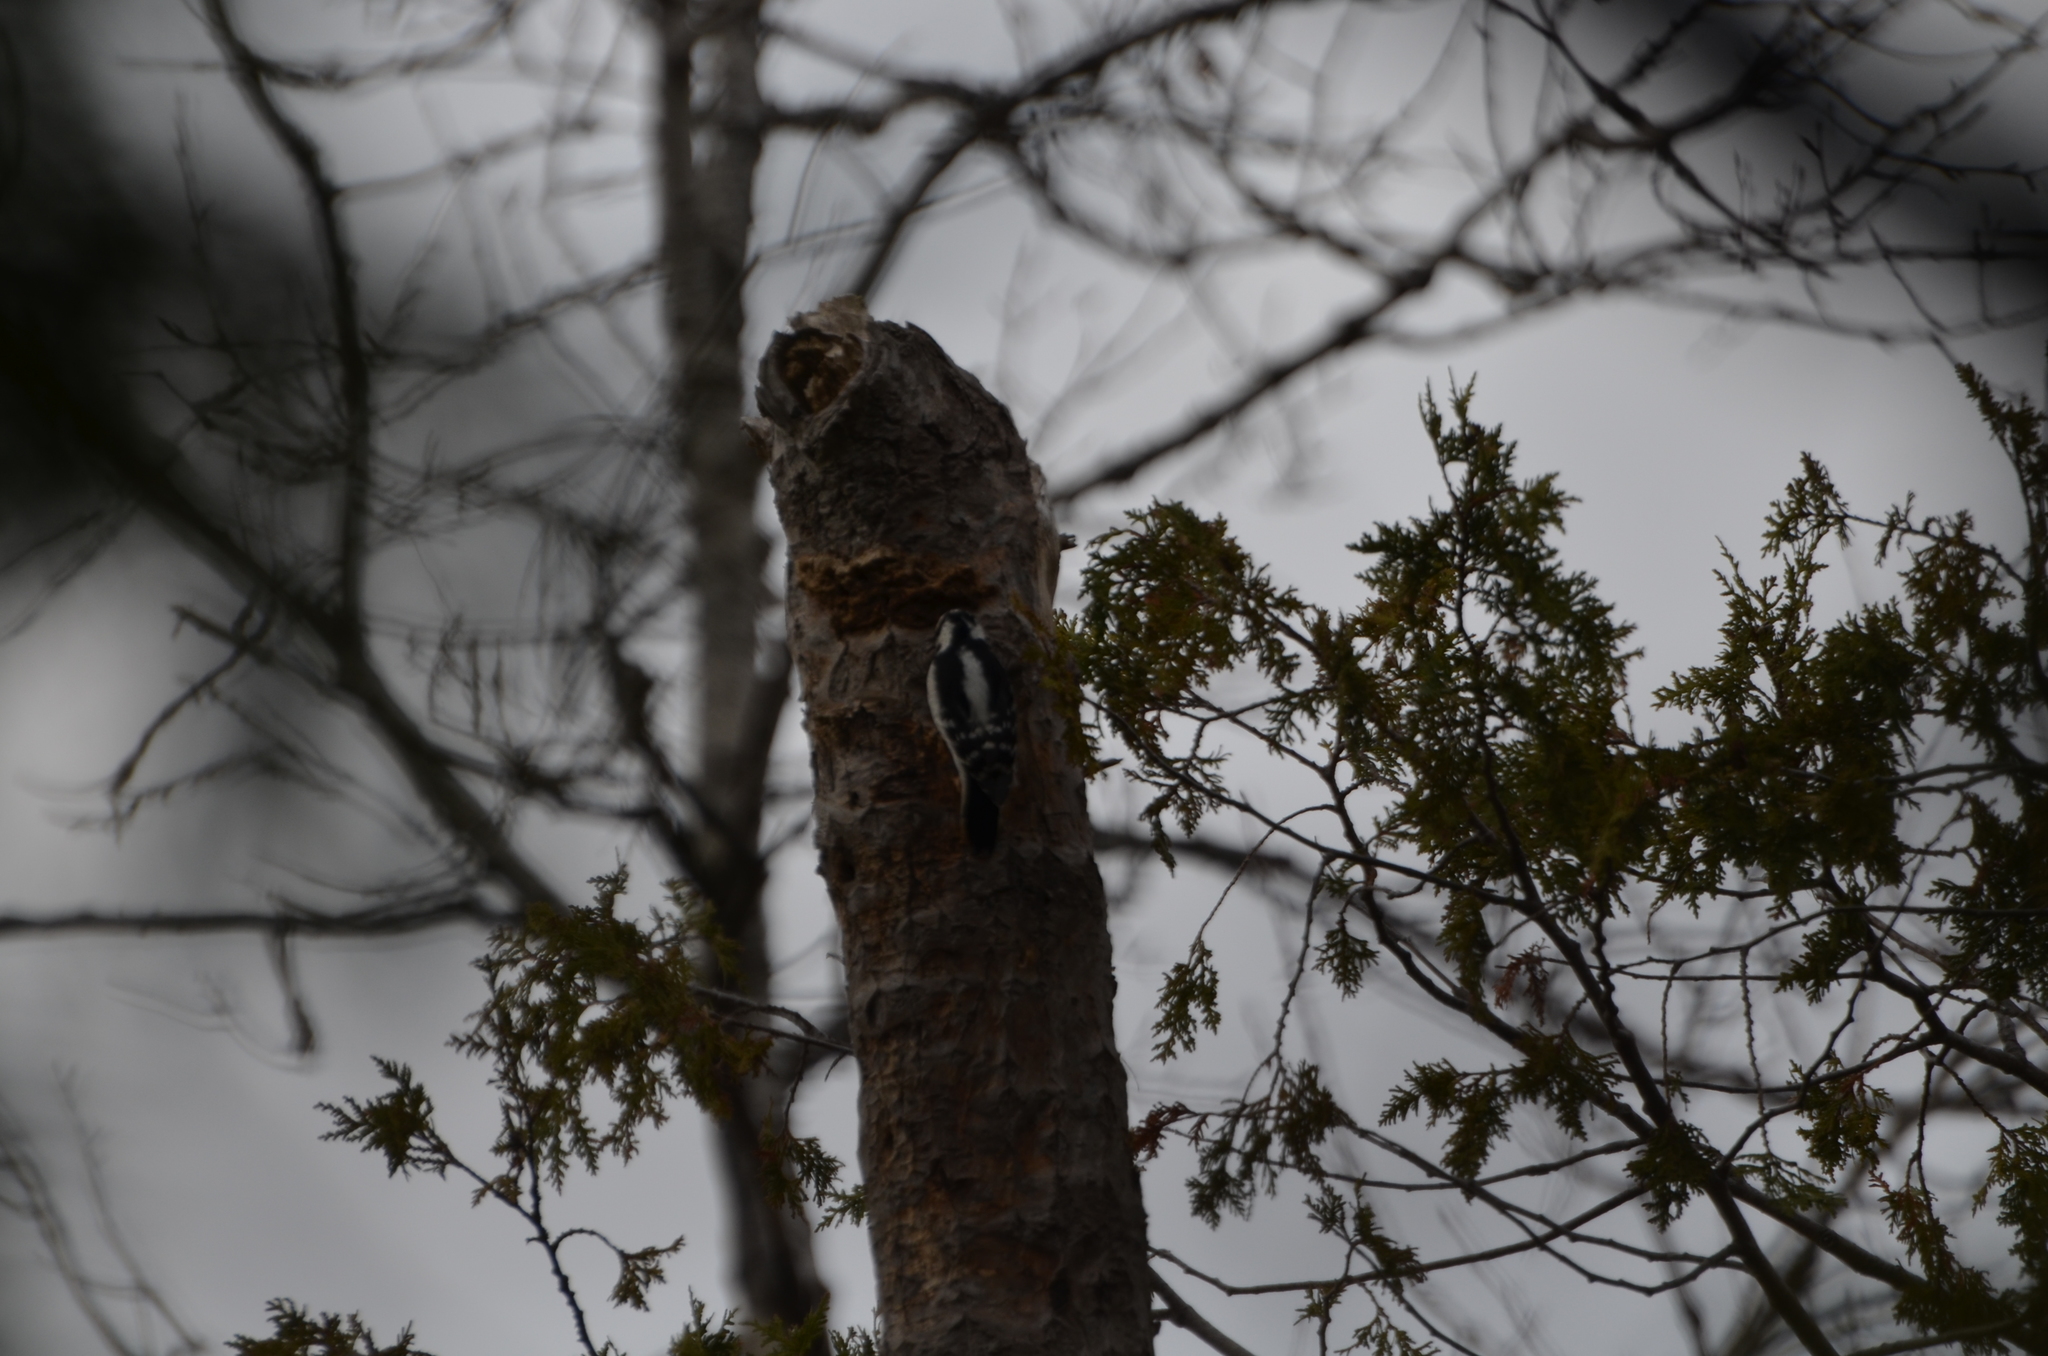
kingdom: Animalia
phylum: Chordata
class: Aves
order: Piciformes
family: Picidae
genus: Leuconotopicus
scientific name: Leuconotopicus villosus
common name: Hairy woodpecker
